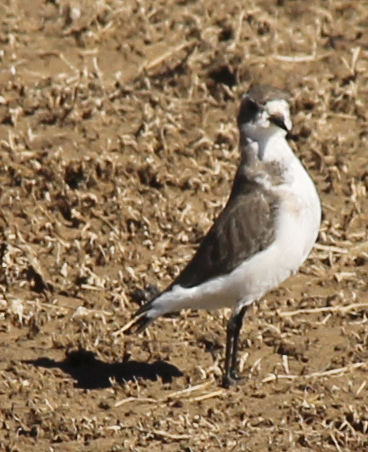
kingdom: Animalia
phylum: Chordata
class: Aves
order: Charadriiformes
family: Charadriidae
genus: Anarhynchus
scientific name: Anarhynchus
